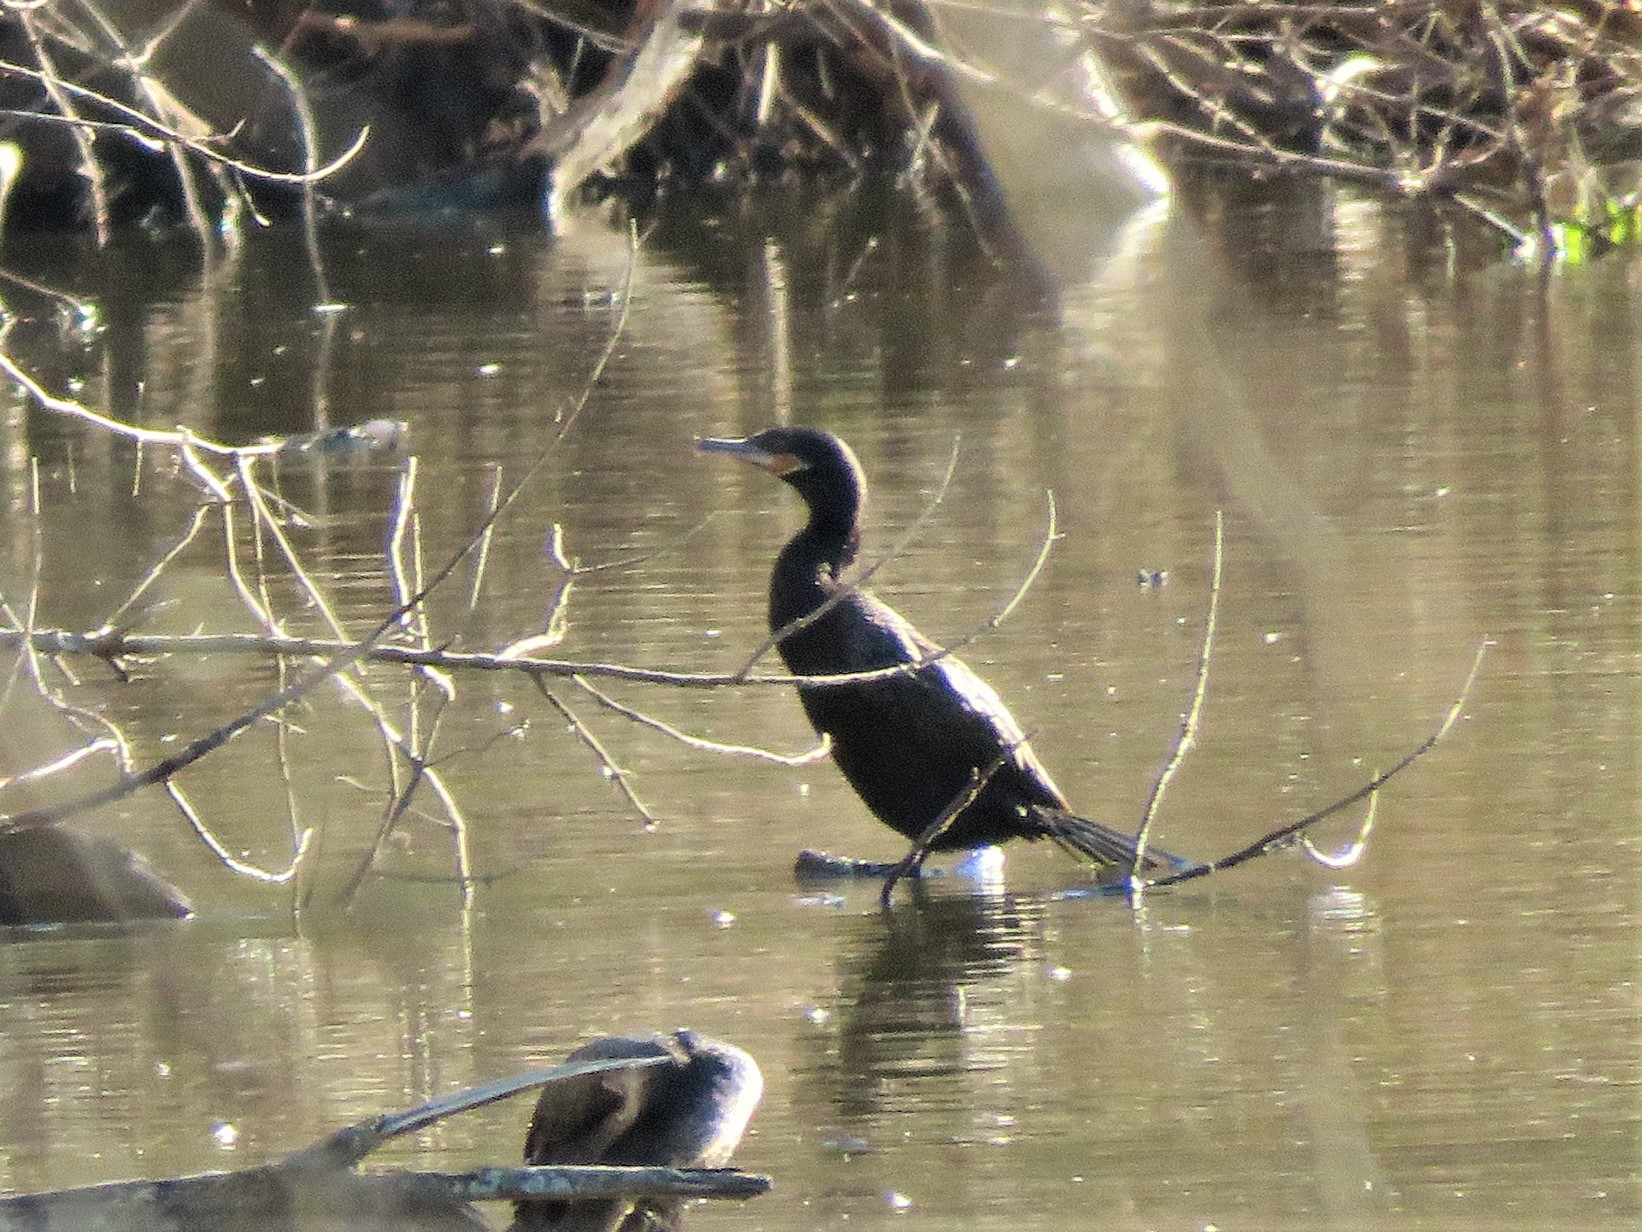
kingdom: Animalia
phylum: Chordata
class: Aves
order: Suliformes
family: Phalacrocoracidae
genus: Phalacrocorax
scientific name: Phalacrocorax brasilianus
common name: Neotropic cormorant
